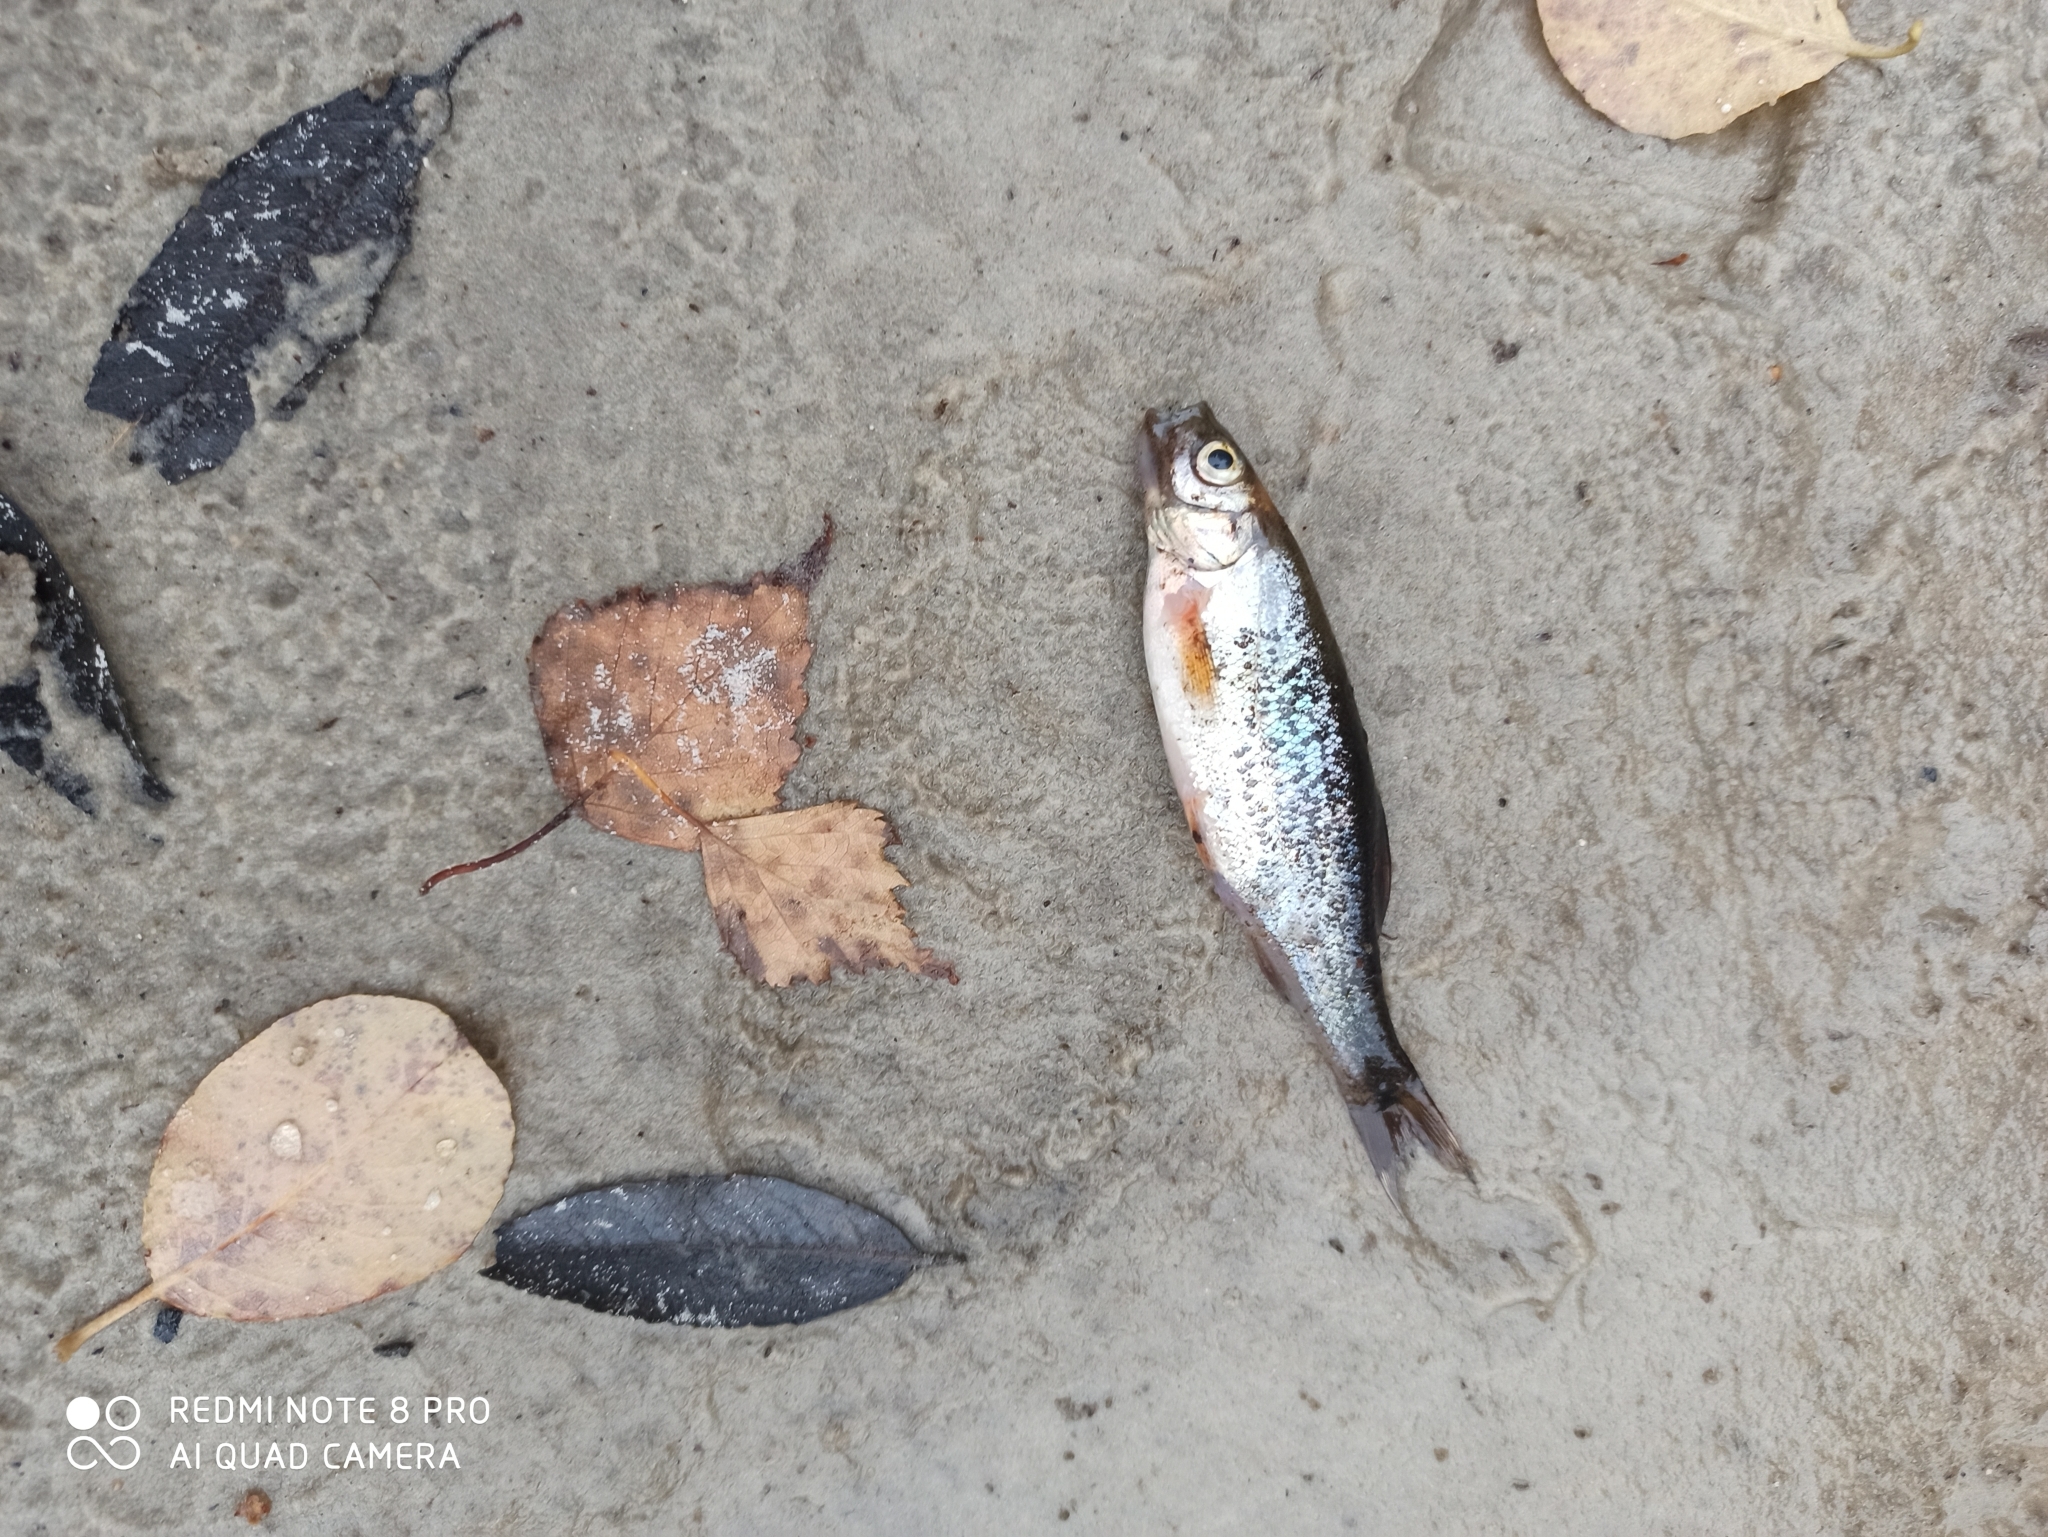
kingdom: Animalia
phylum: Chordata
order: Cypriniformes
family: Cyprinidae
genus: Rhynchocypris
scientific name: Rhynchocypris percnurus
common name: Swamp minnow
